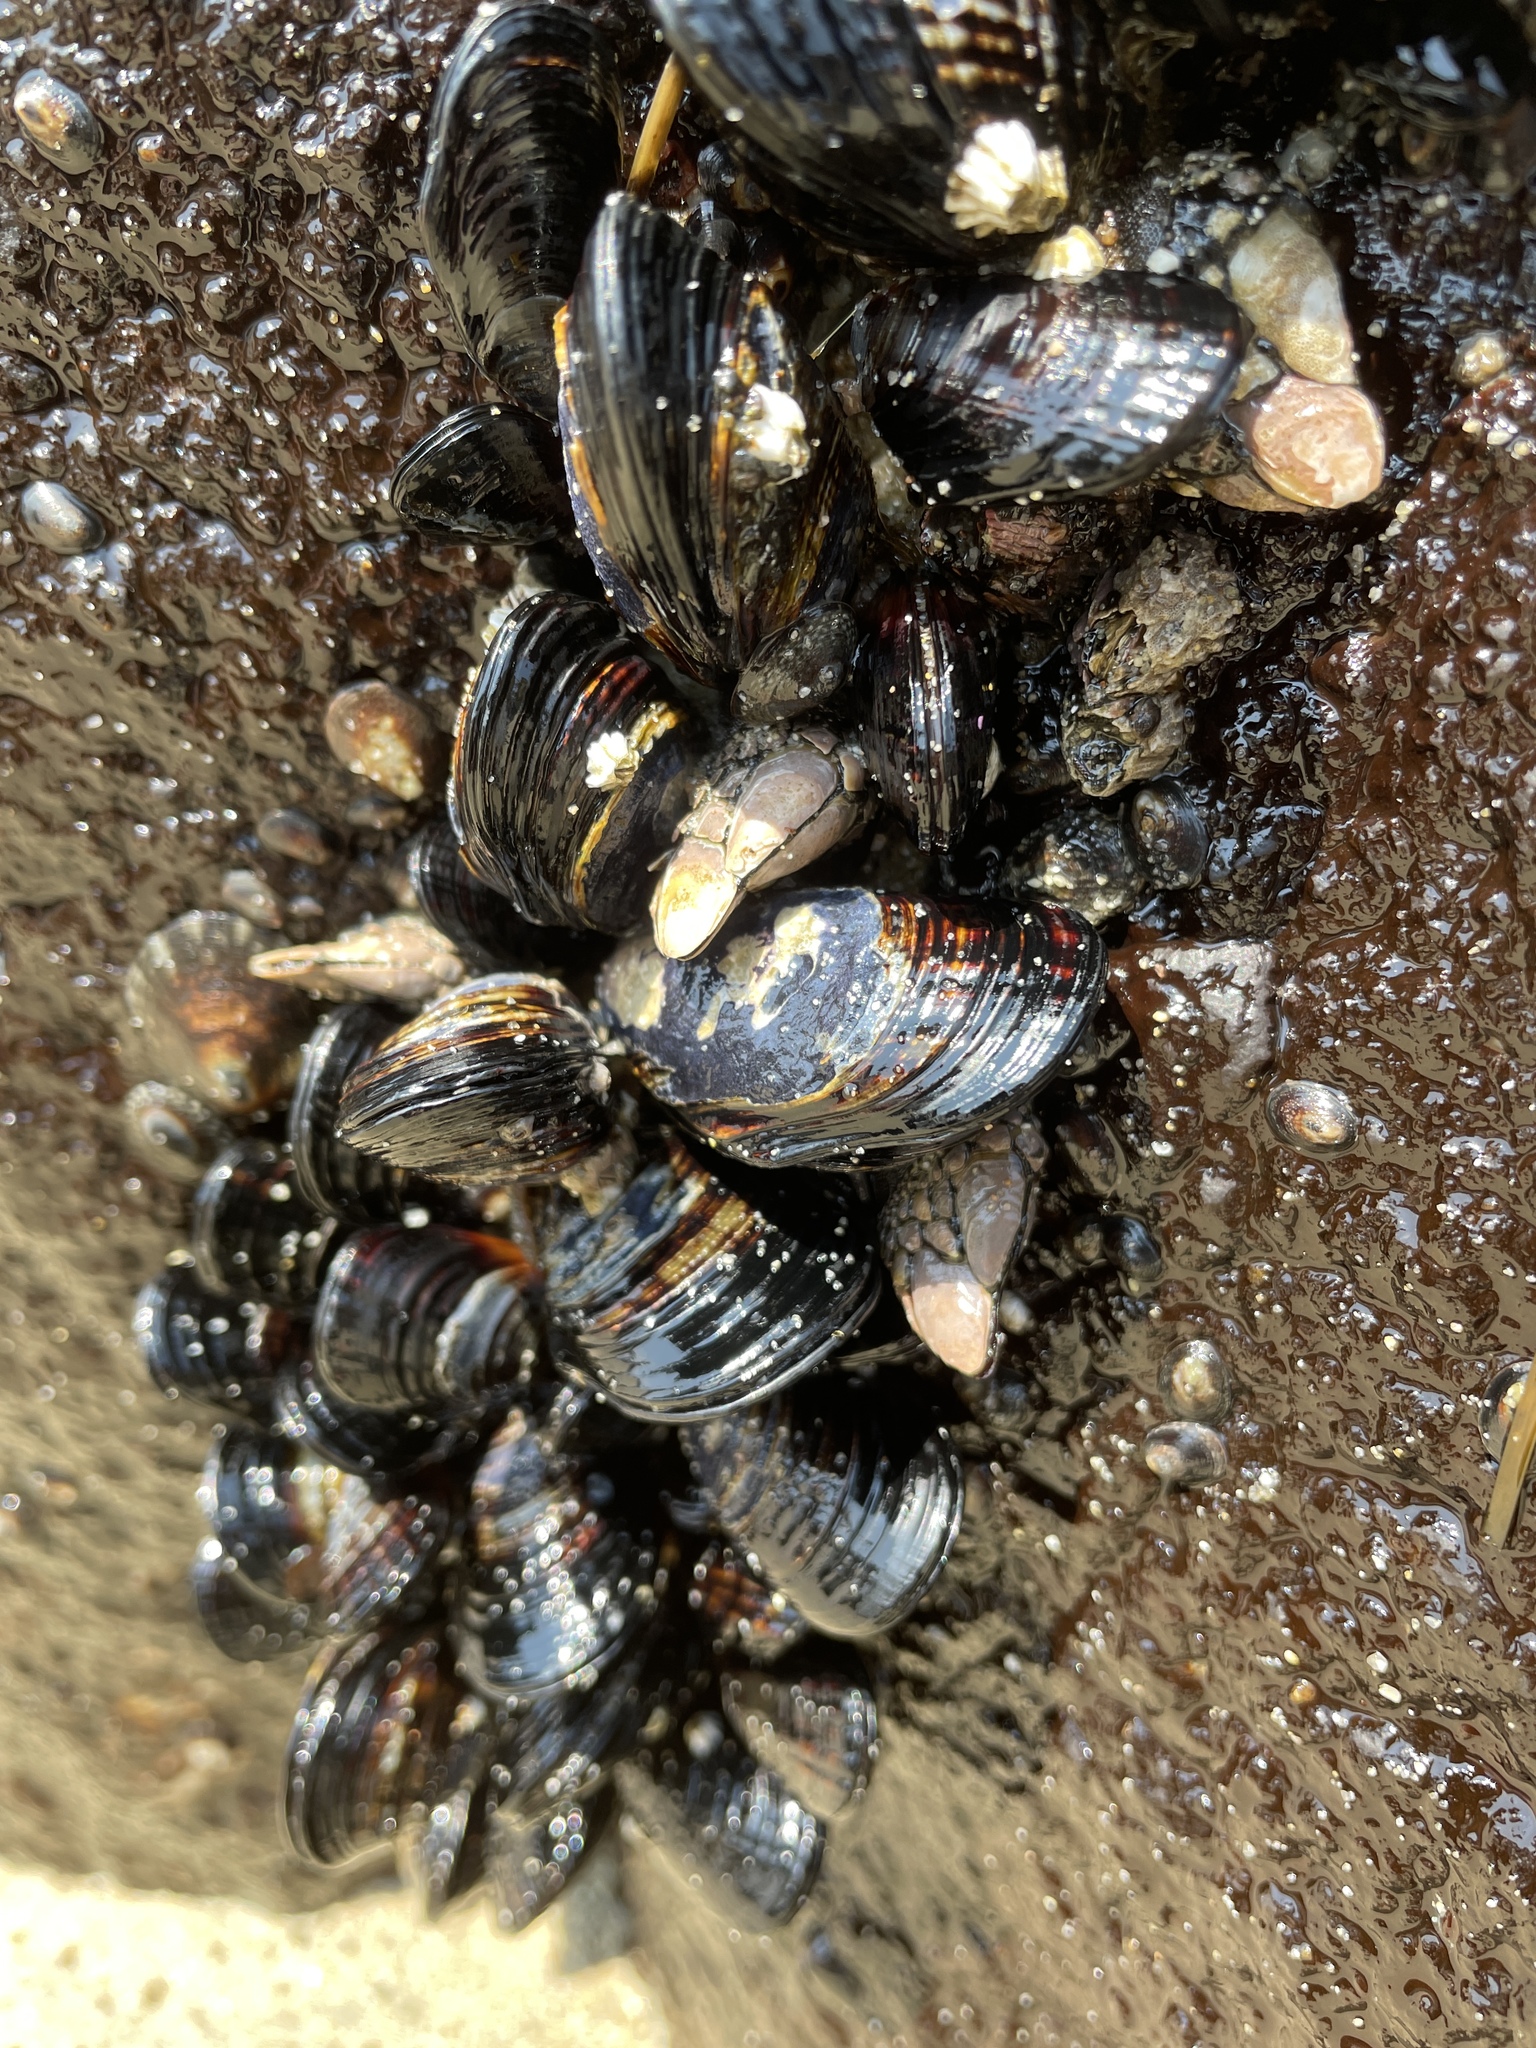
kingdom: Animalia
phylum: Mollusca
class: Bivalvia
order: Mytilida
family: Mytilidae
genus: Mytilus
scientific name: Mytilus californianus
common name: California mussel
